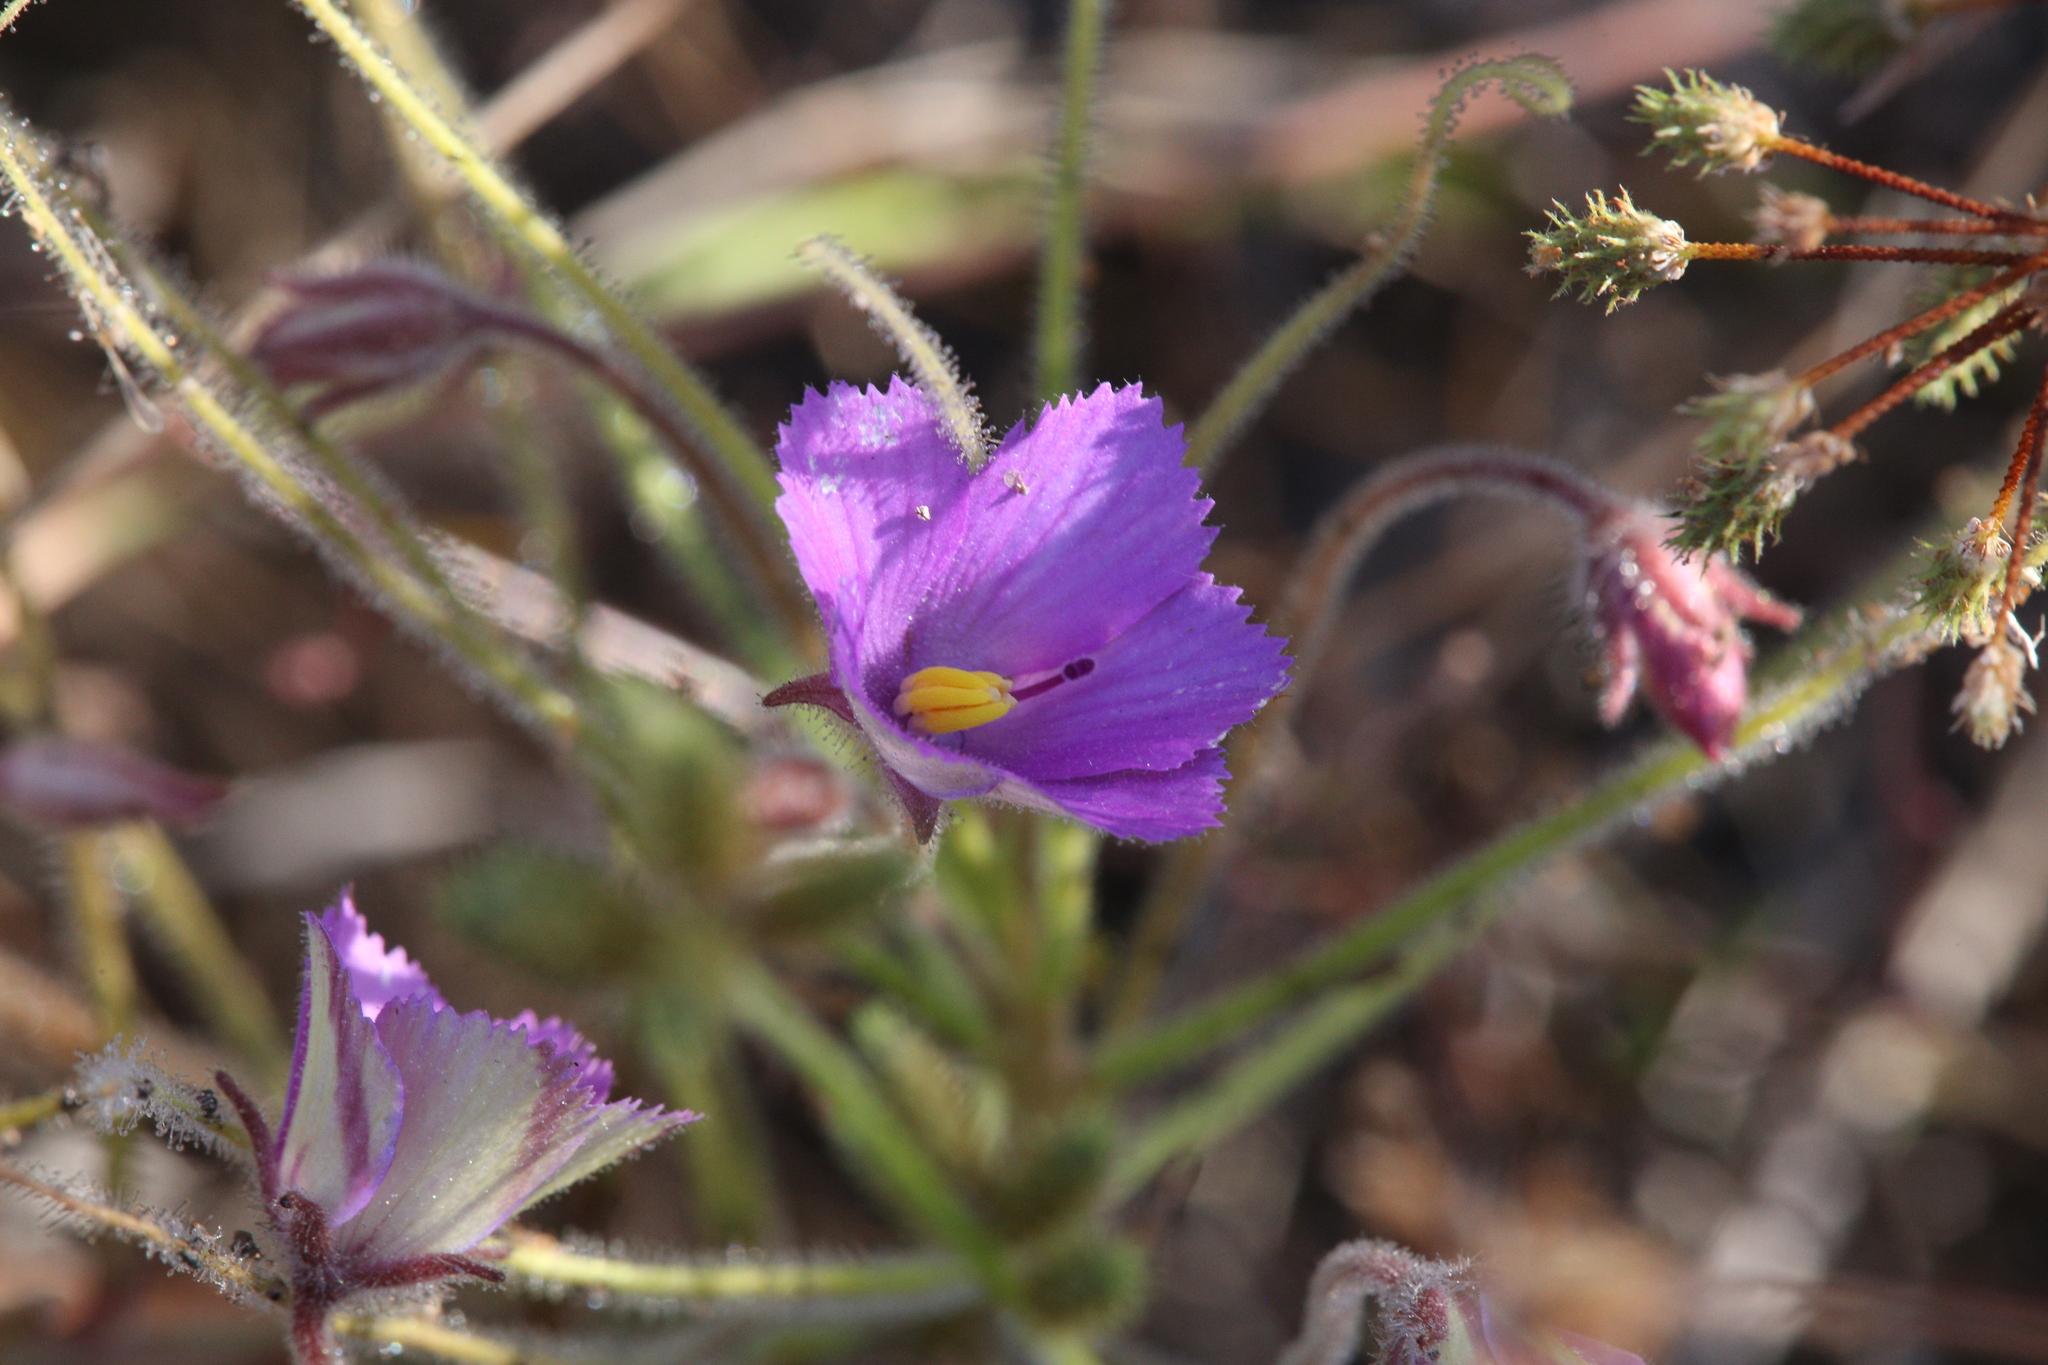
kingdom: Plantae
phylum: Tracheophyta
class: Magnoliopsida
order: Lamiales
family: Byblidaceae
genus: Byblis
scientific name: Byblis filifolia
